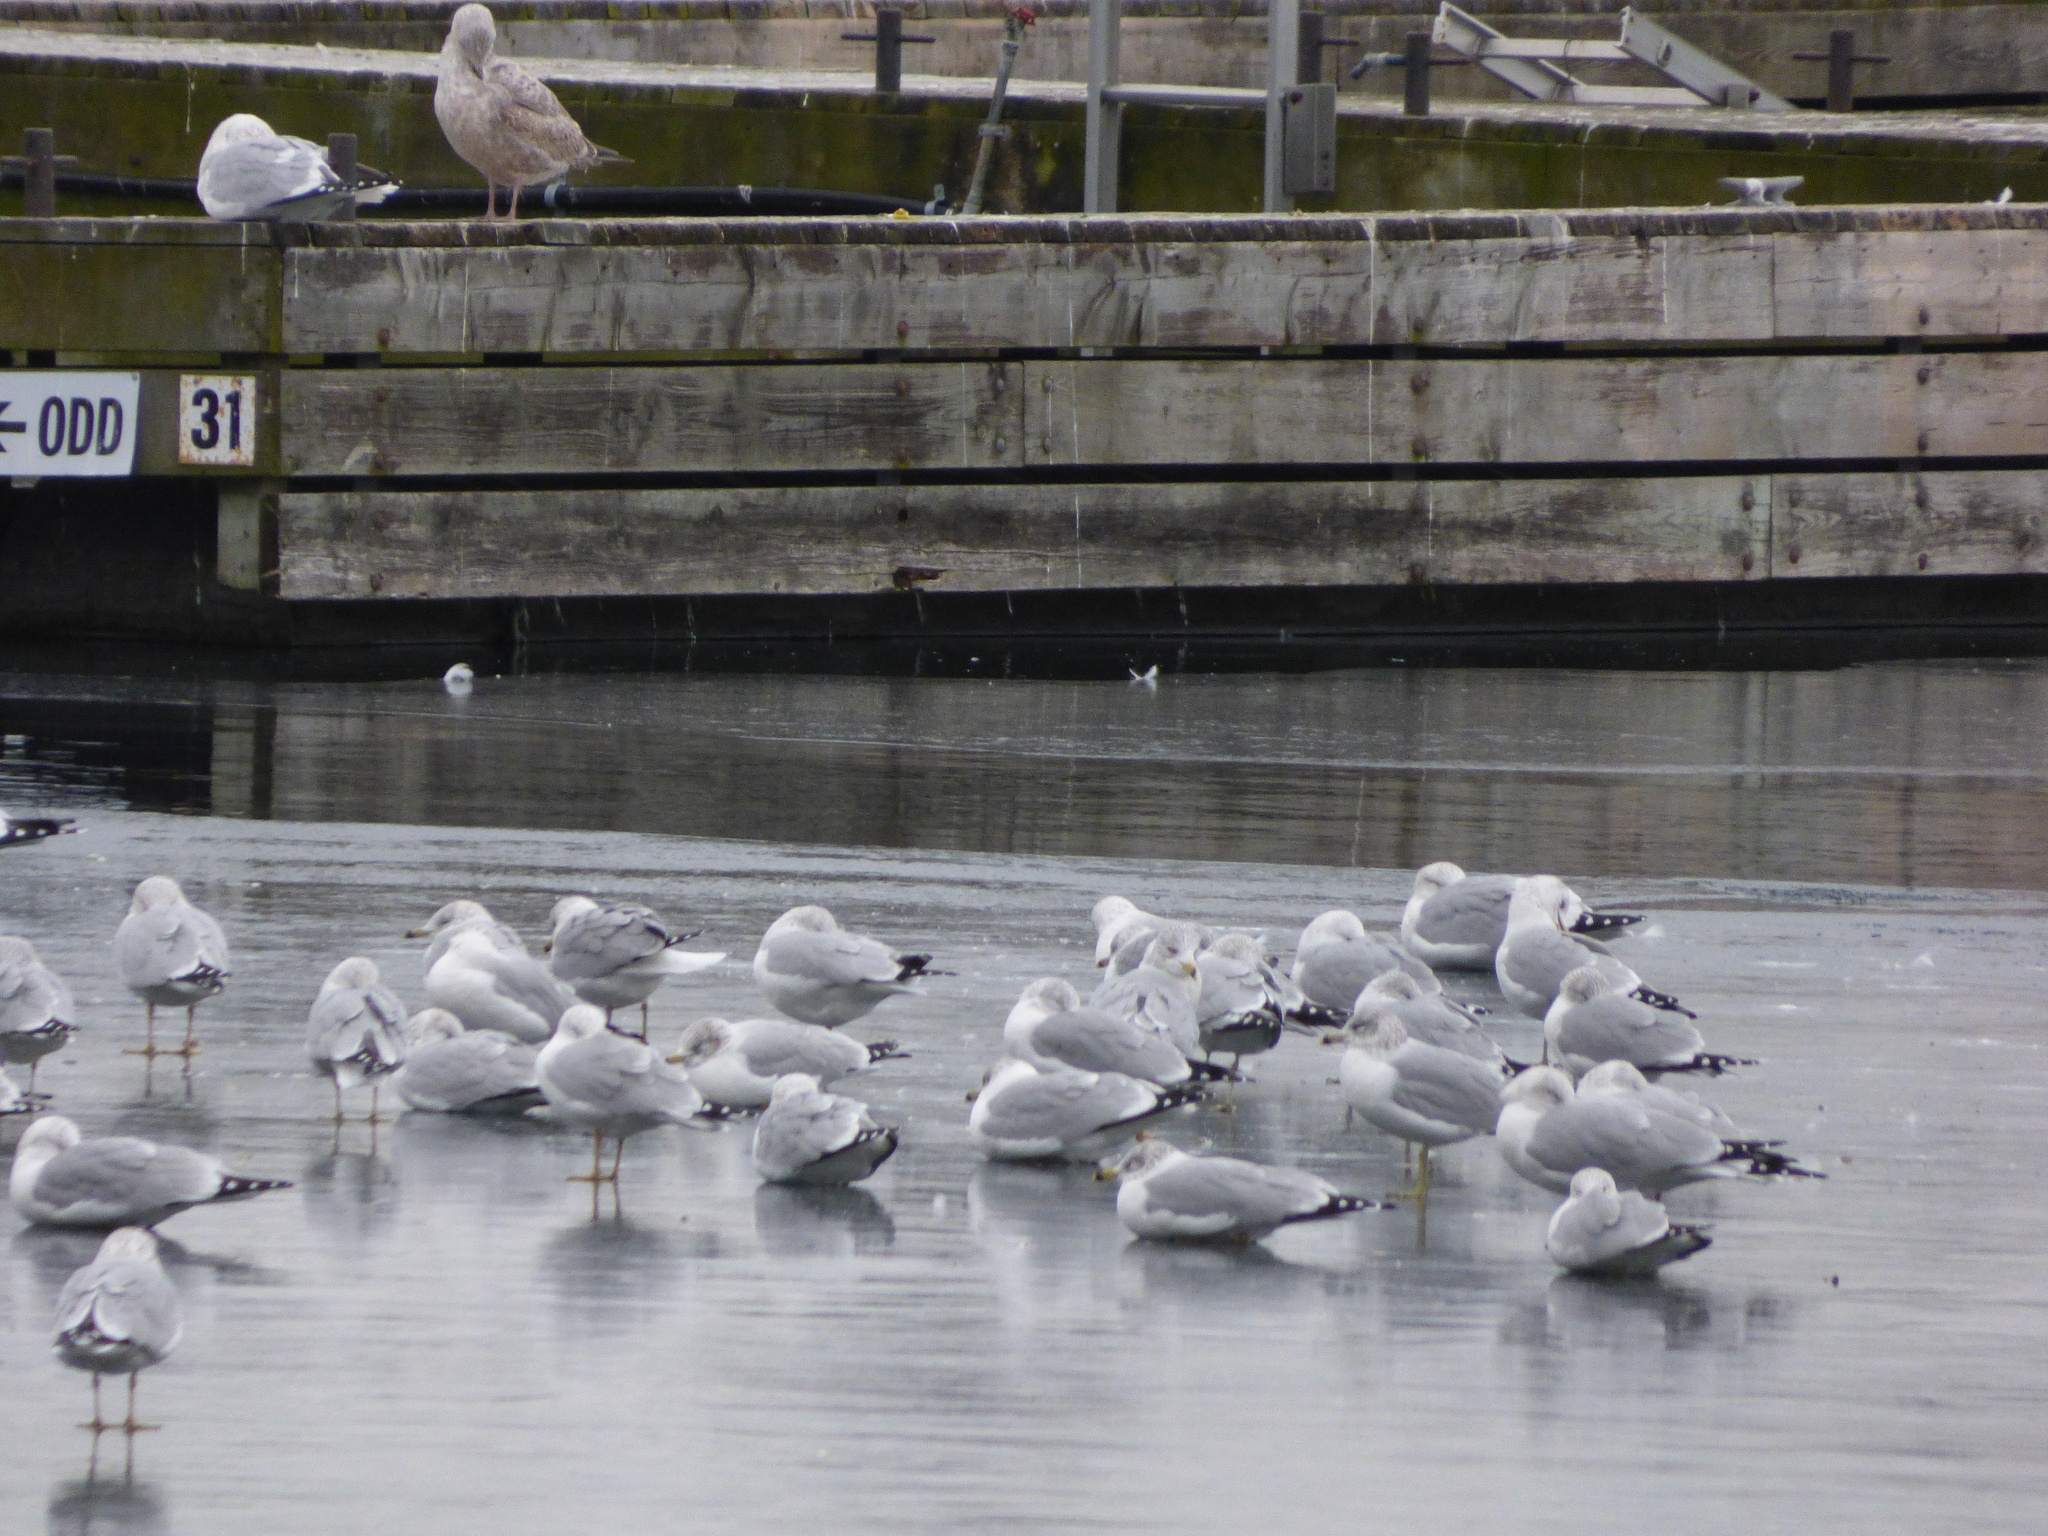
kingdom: Animalia
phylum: Chordata
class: Aves
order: Charadriiformes
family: Laridae
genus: Larus
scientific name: Larus delawarensis
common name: Ring-billed gull
